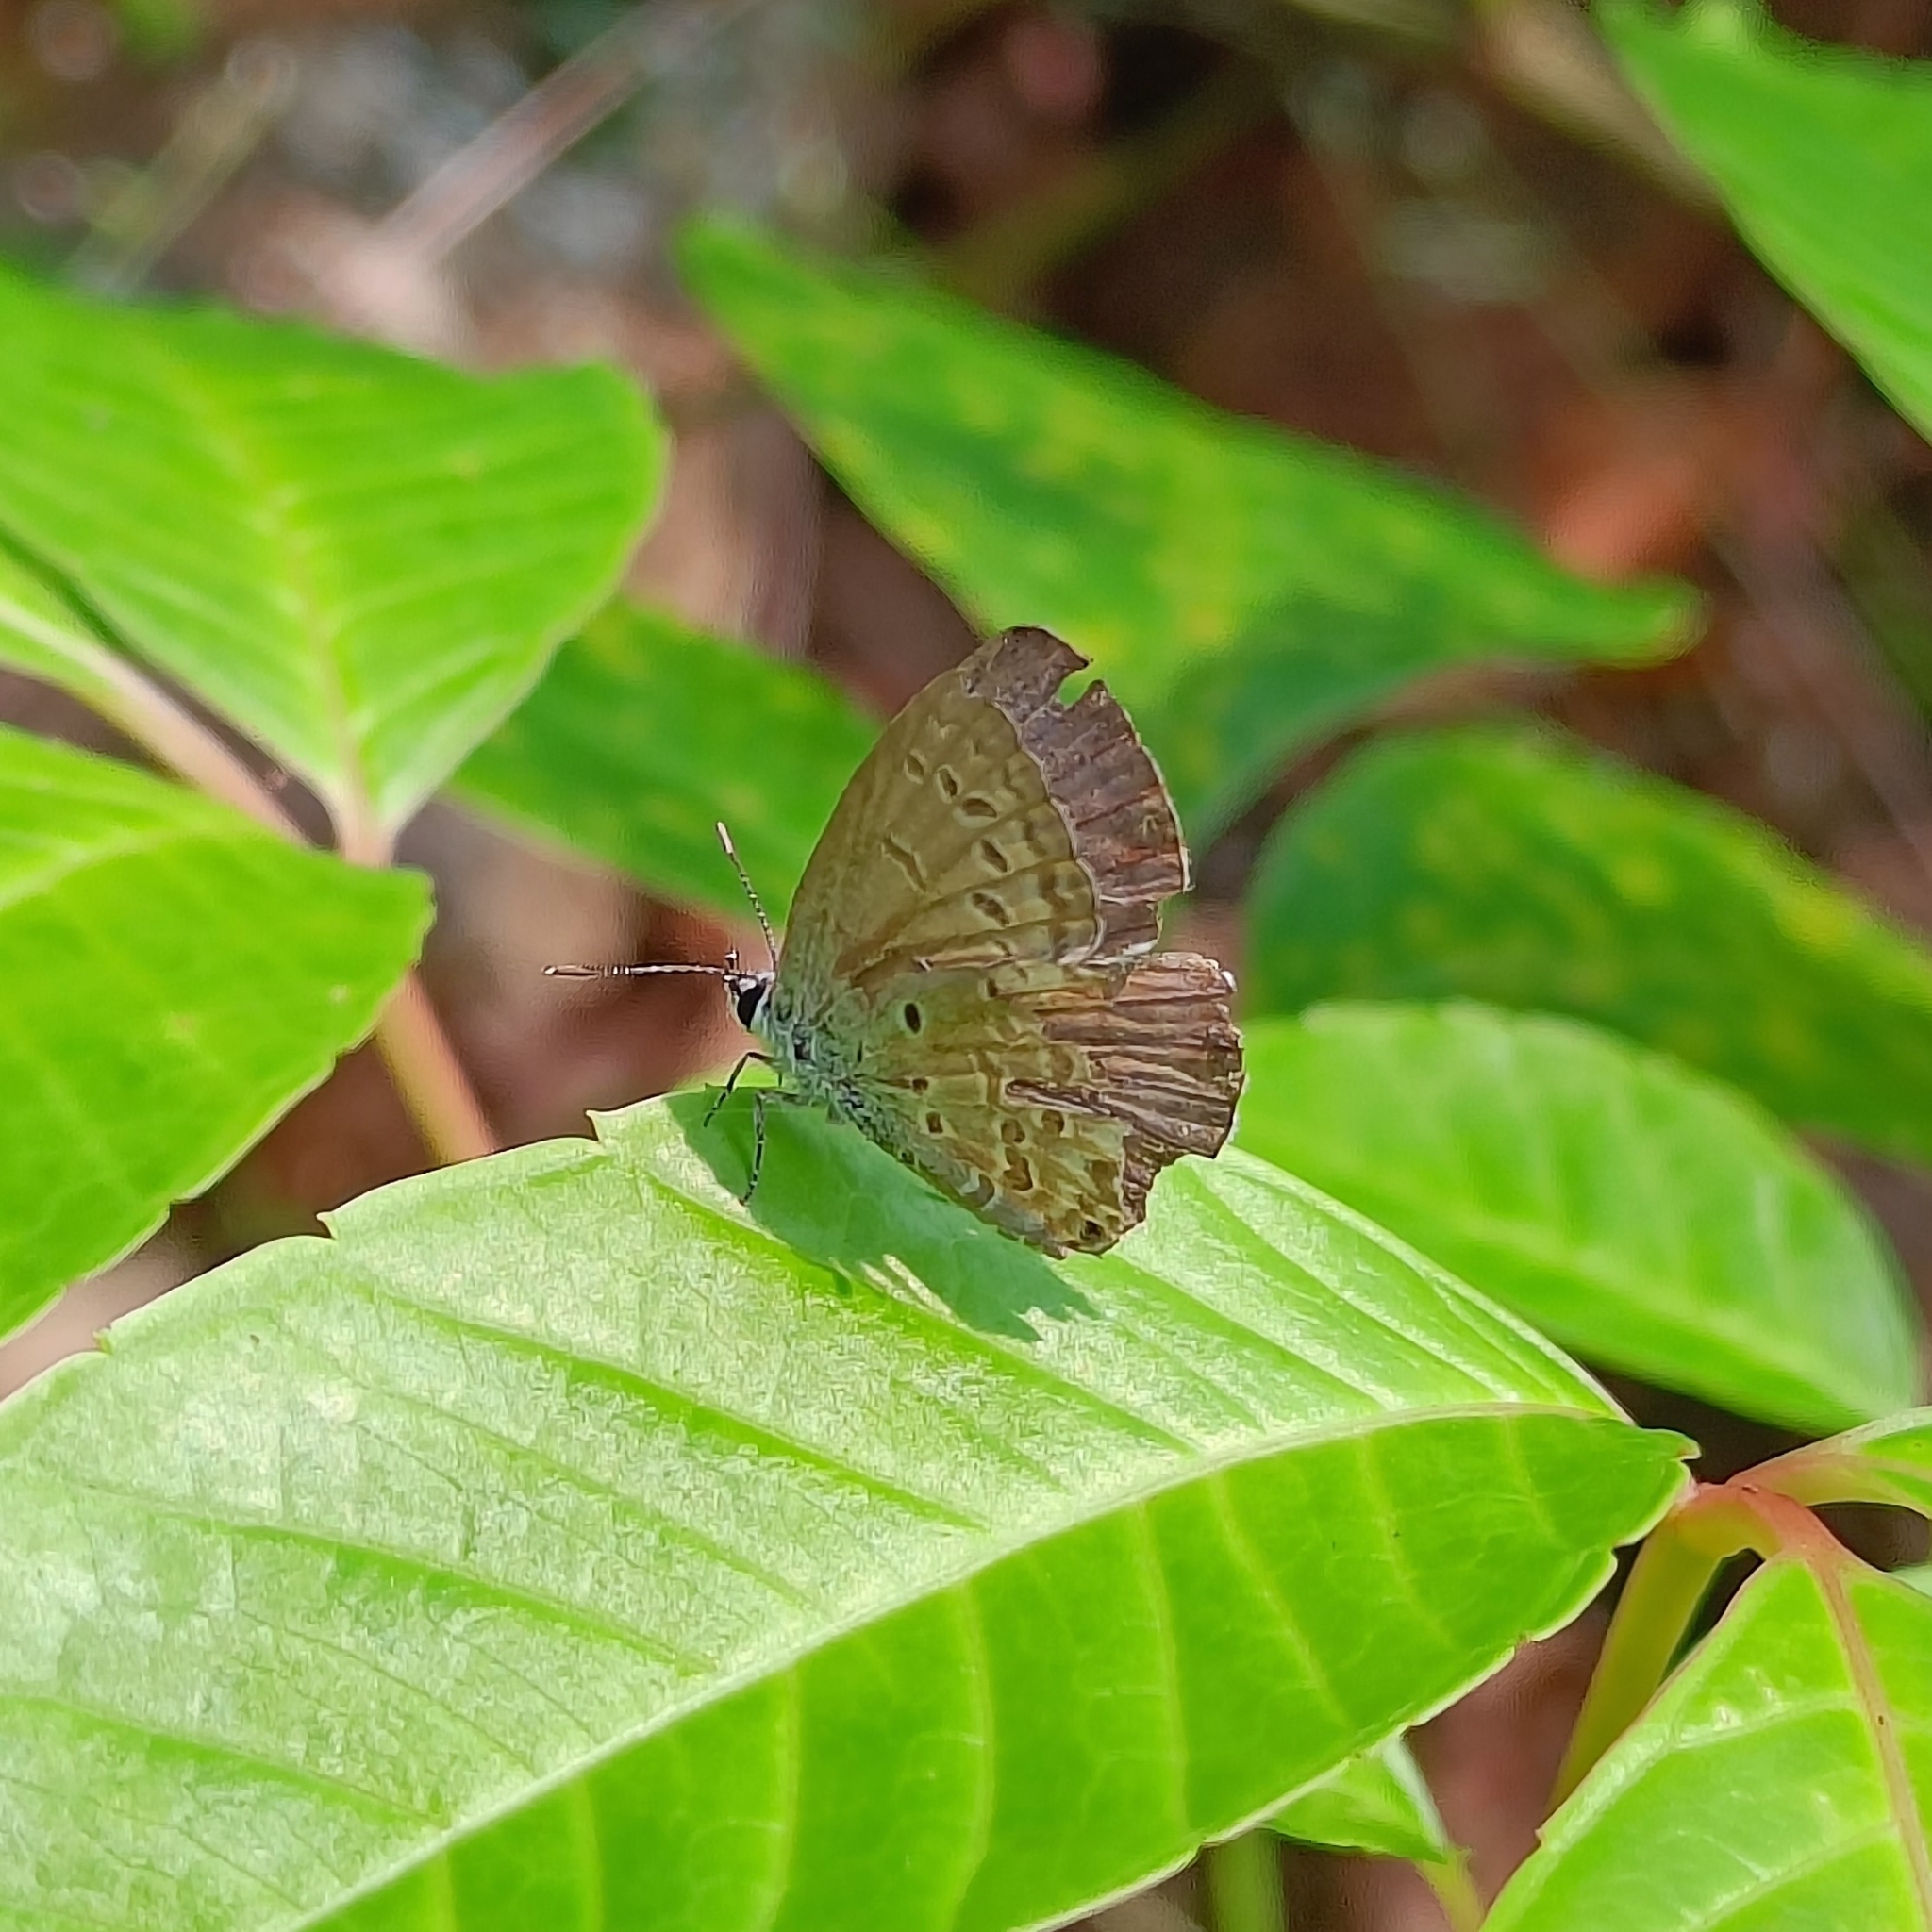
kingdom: Animalia
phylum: Arthropoda
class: Insecta
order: Lepidoptera
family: Lycaenidae
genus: Chilades
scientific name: Chilades laius
